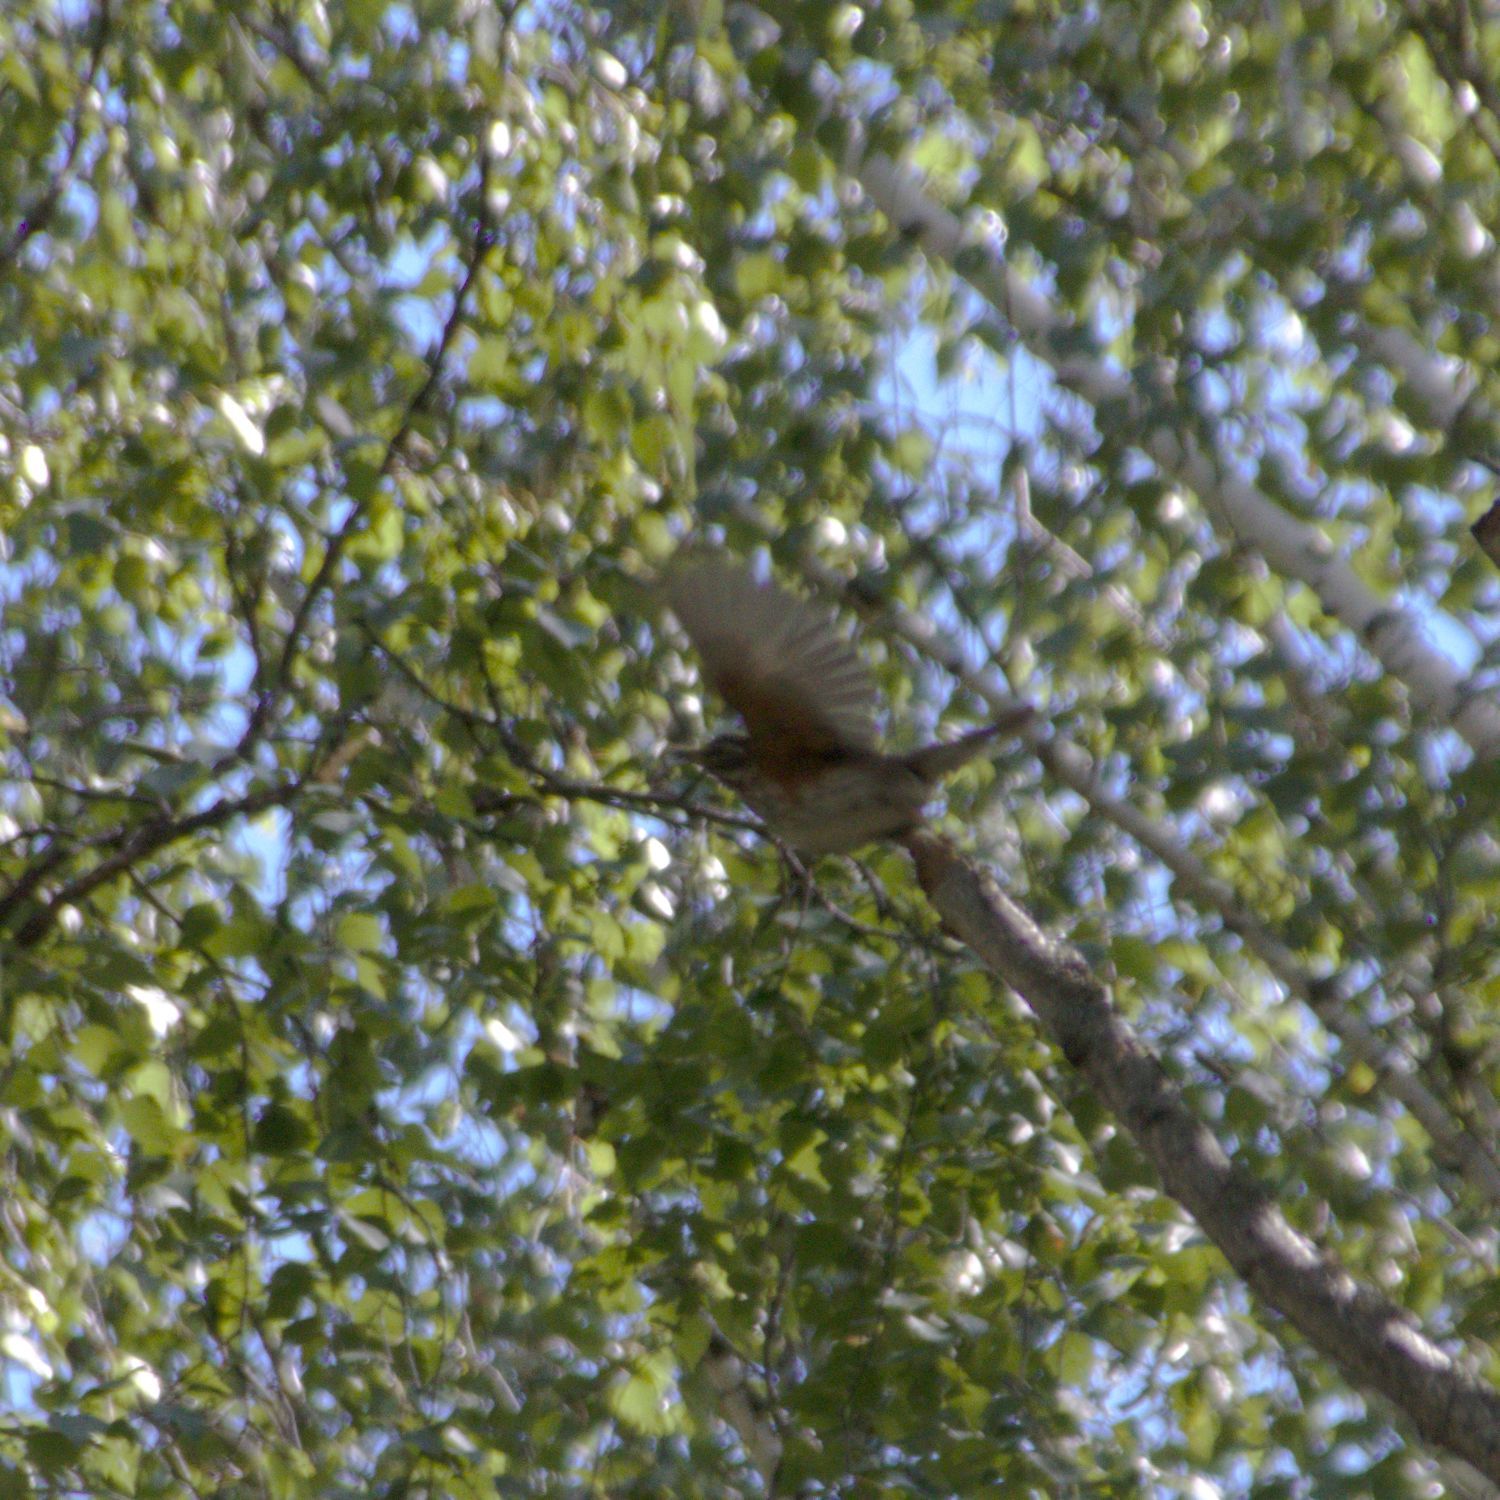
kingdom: Animalia
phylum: Chordata
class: Aves
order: Passeriformes
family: Turdidae
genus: Turdus
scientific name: Turdus iliacus
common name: Redwing
